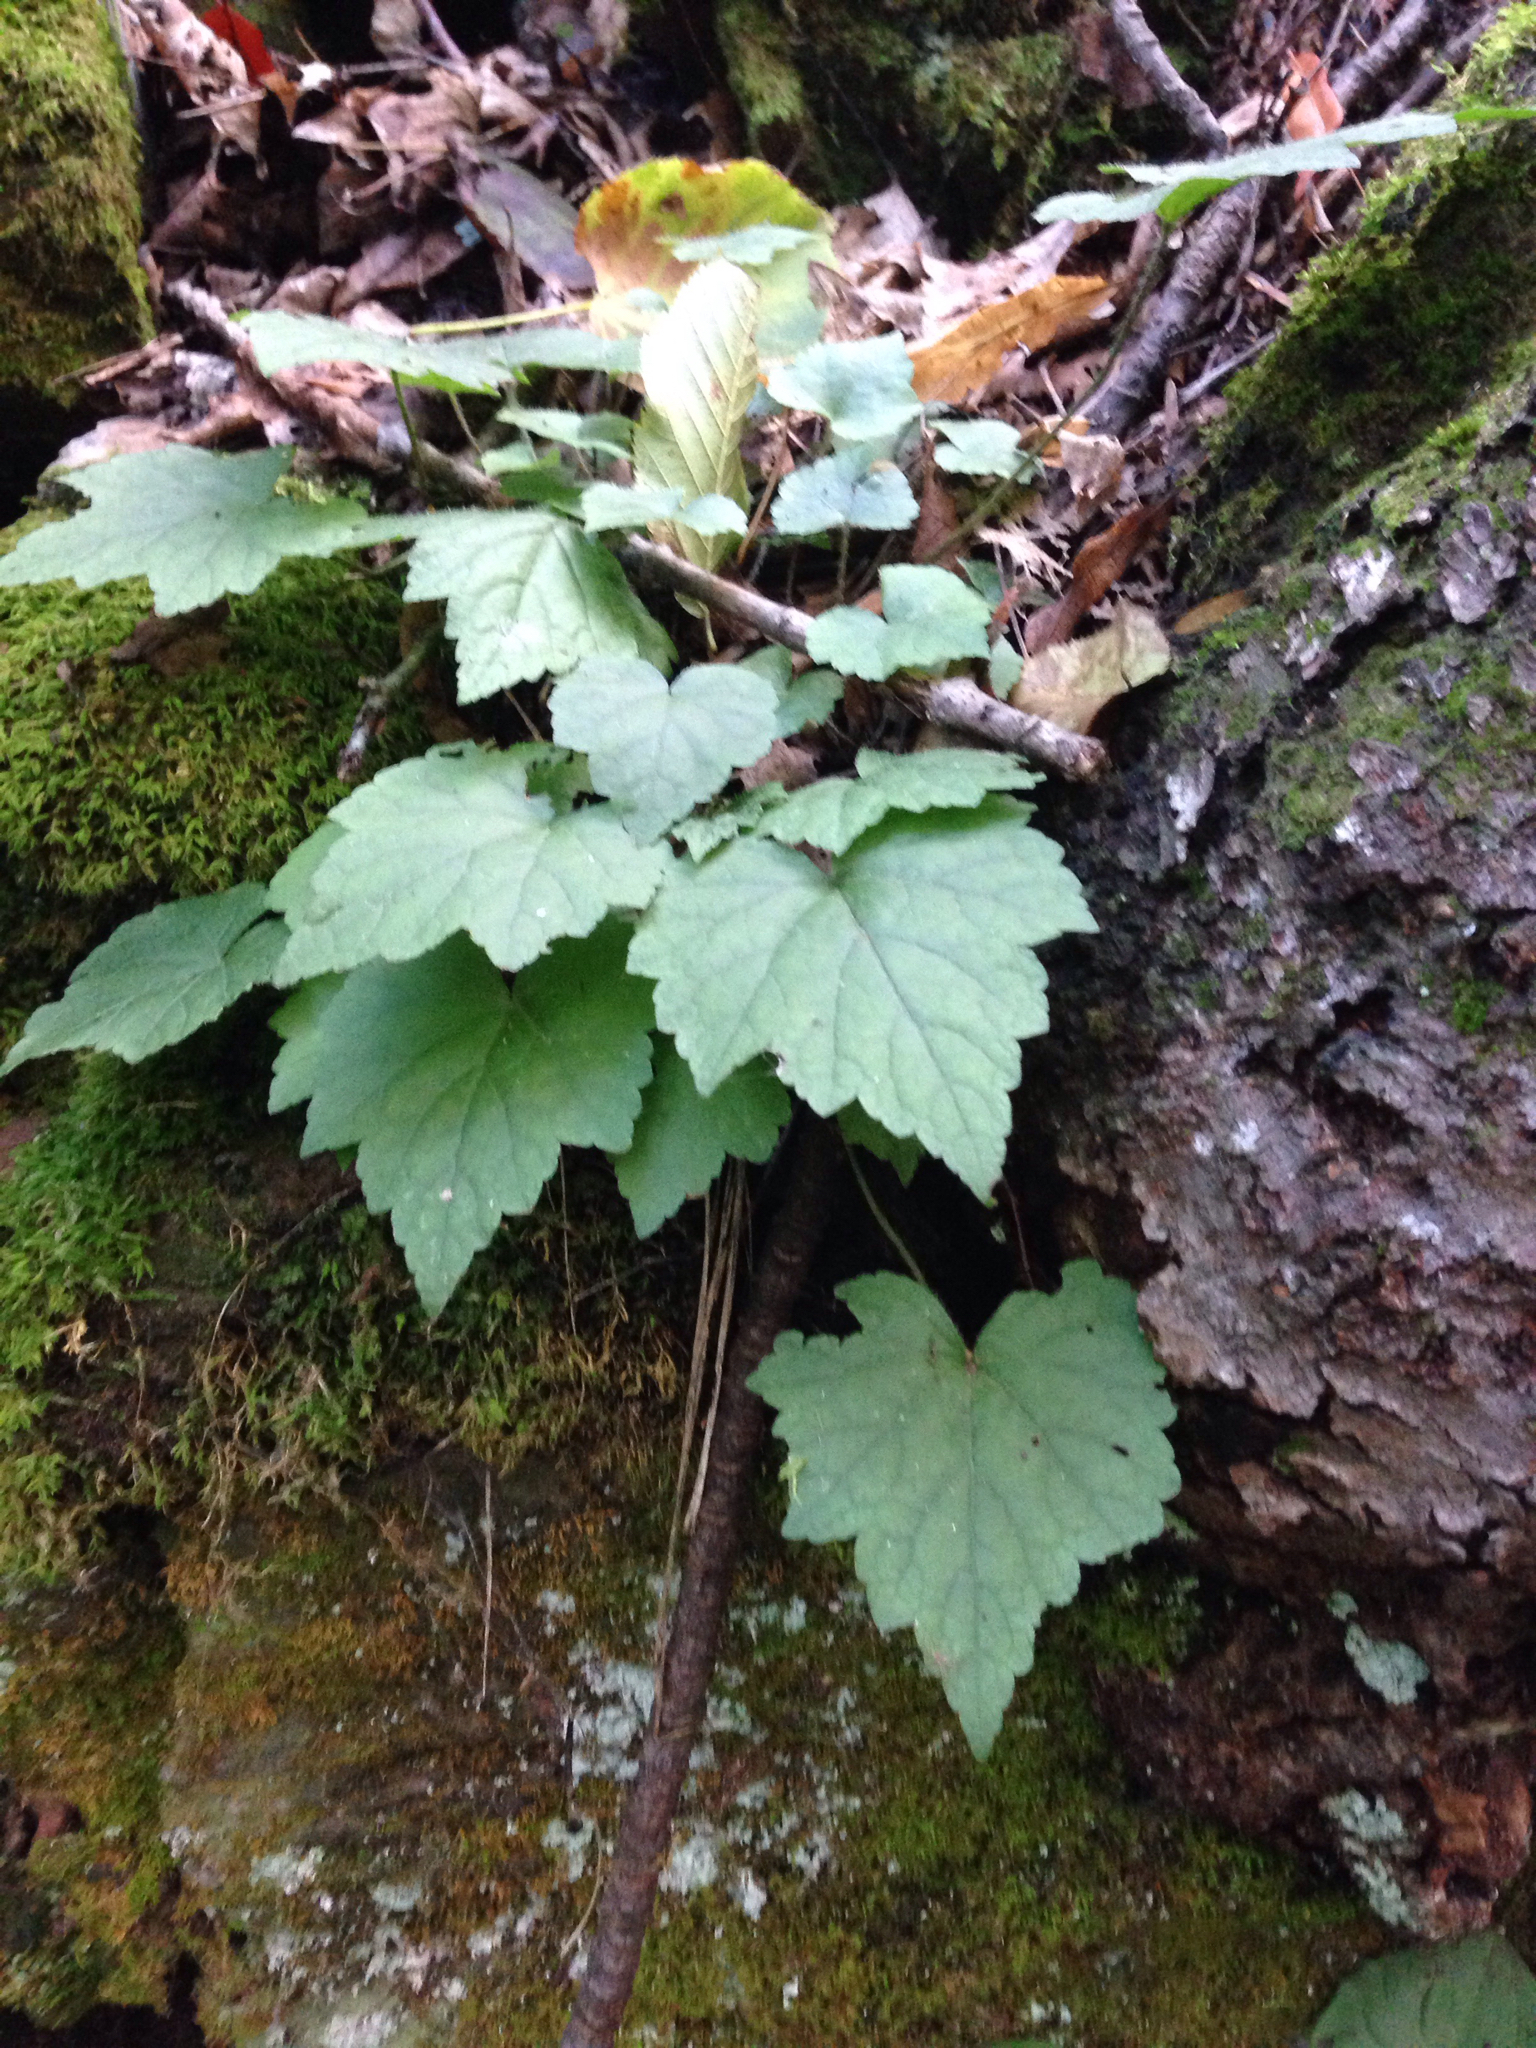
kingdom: Plantae
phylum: Tracheophyta
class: Magnoliopsida
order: Saxifragales
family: Saxifragaceae
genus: Tiarella
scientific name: Tiarella stolonifera
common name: Stoloniferous foamflower
